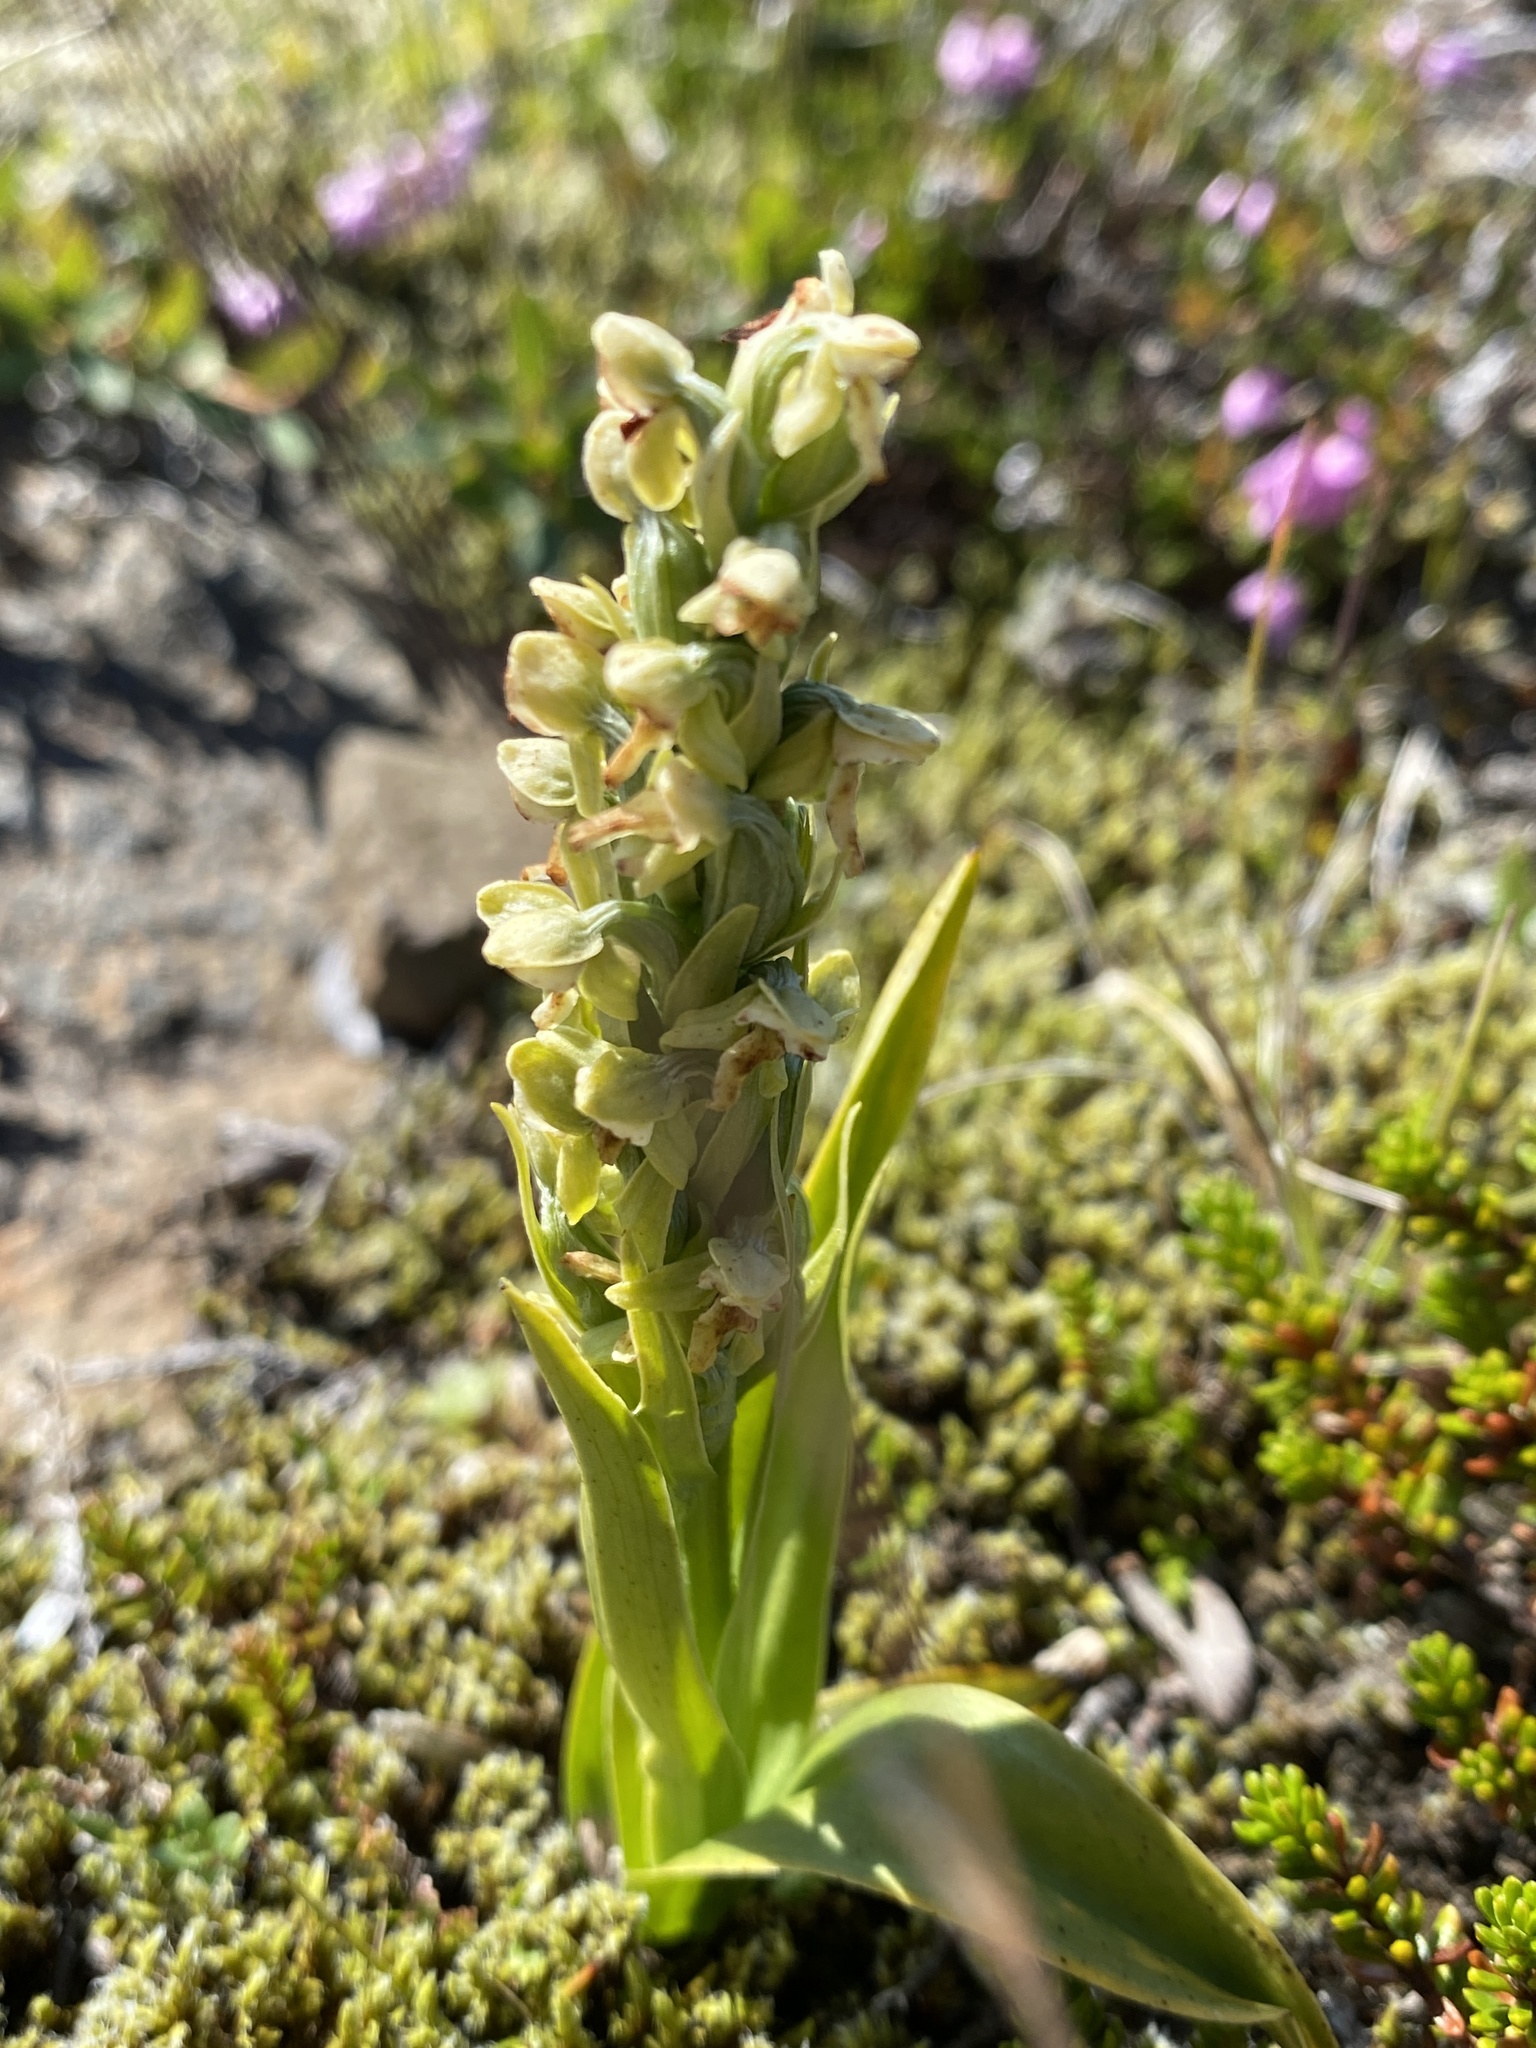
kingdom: Plantae
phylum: Tracheophyta
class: Liliopsida
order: Asparagales
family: Orchidaceae
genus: Platanthera
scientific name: Platanthera hyperborea
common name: Northern green orchid
